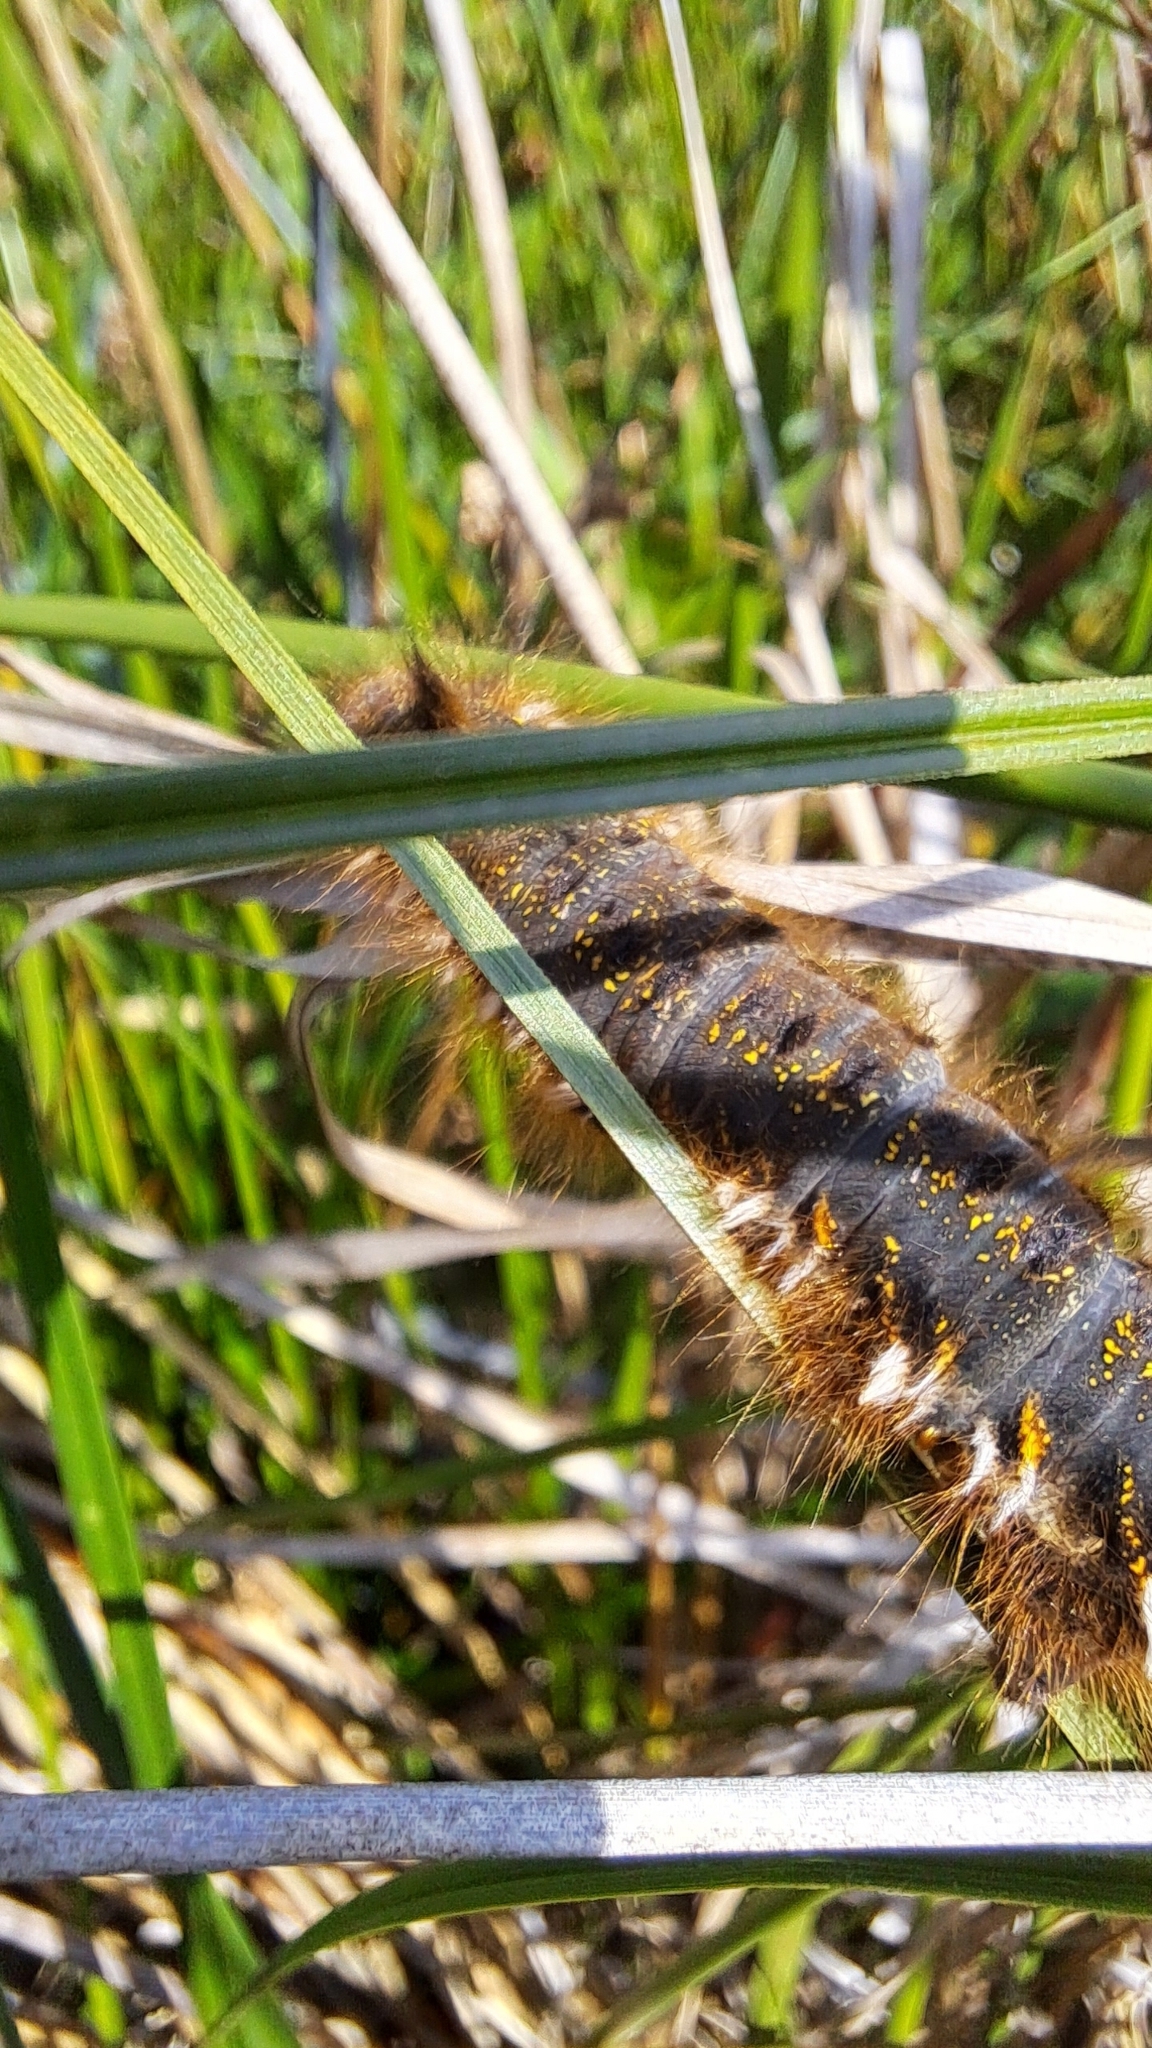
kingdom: Animalia
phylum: Arthropoda
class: Insecta
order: Lepidoptera
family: Lasiocampidae
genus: Euthrix
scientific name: Euthrix potatoria
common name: Drinker
